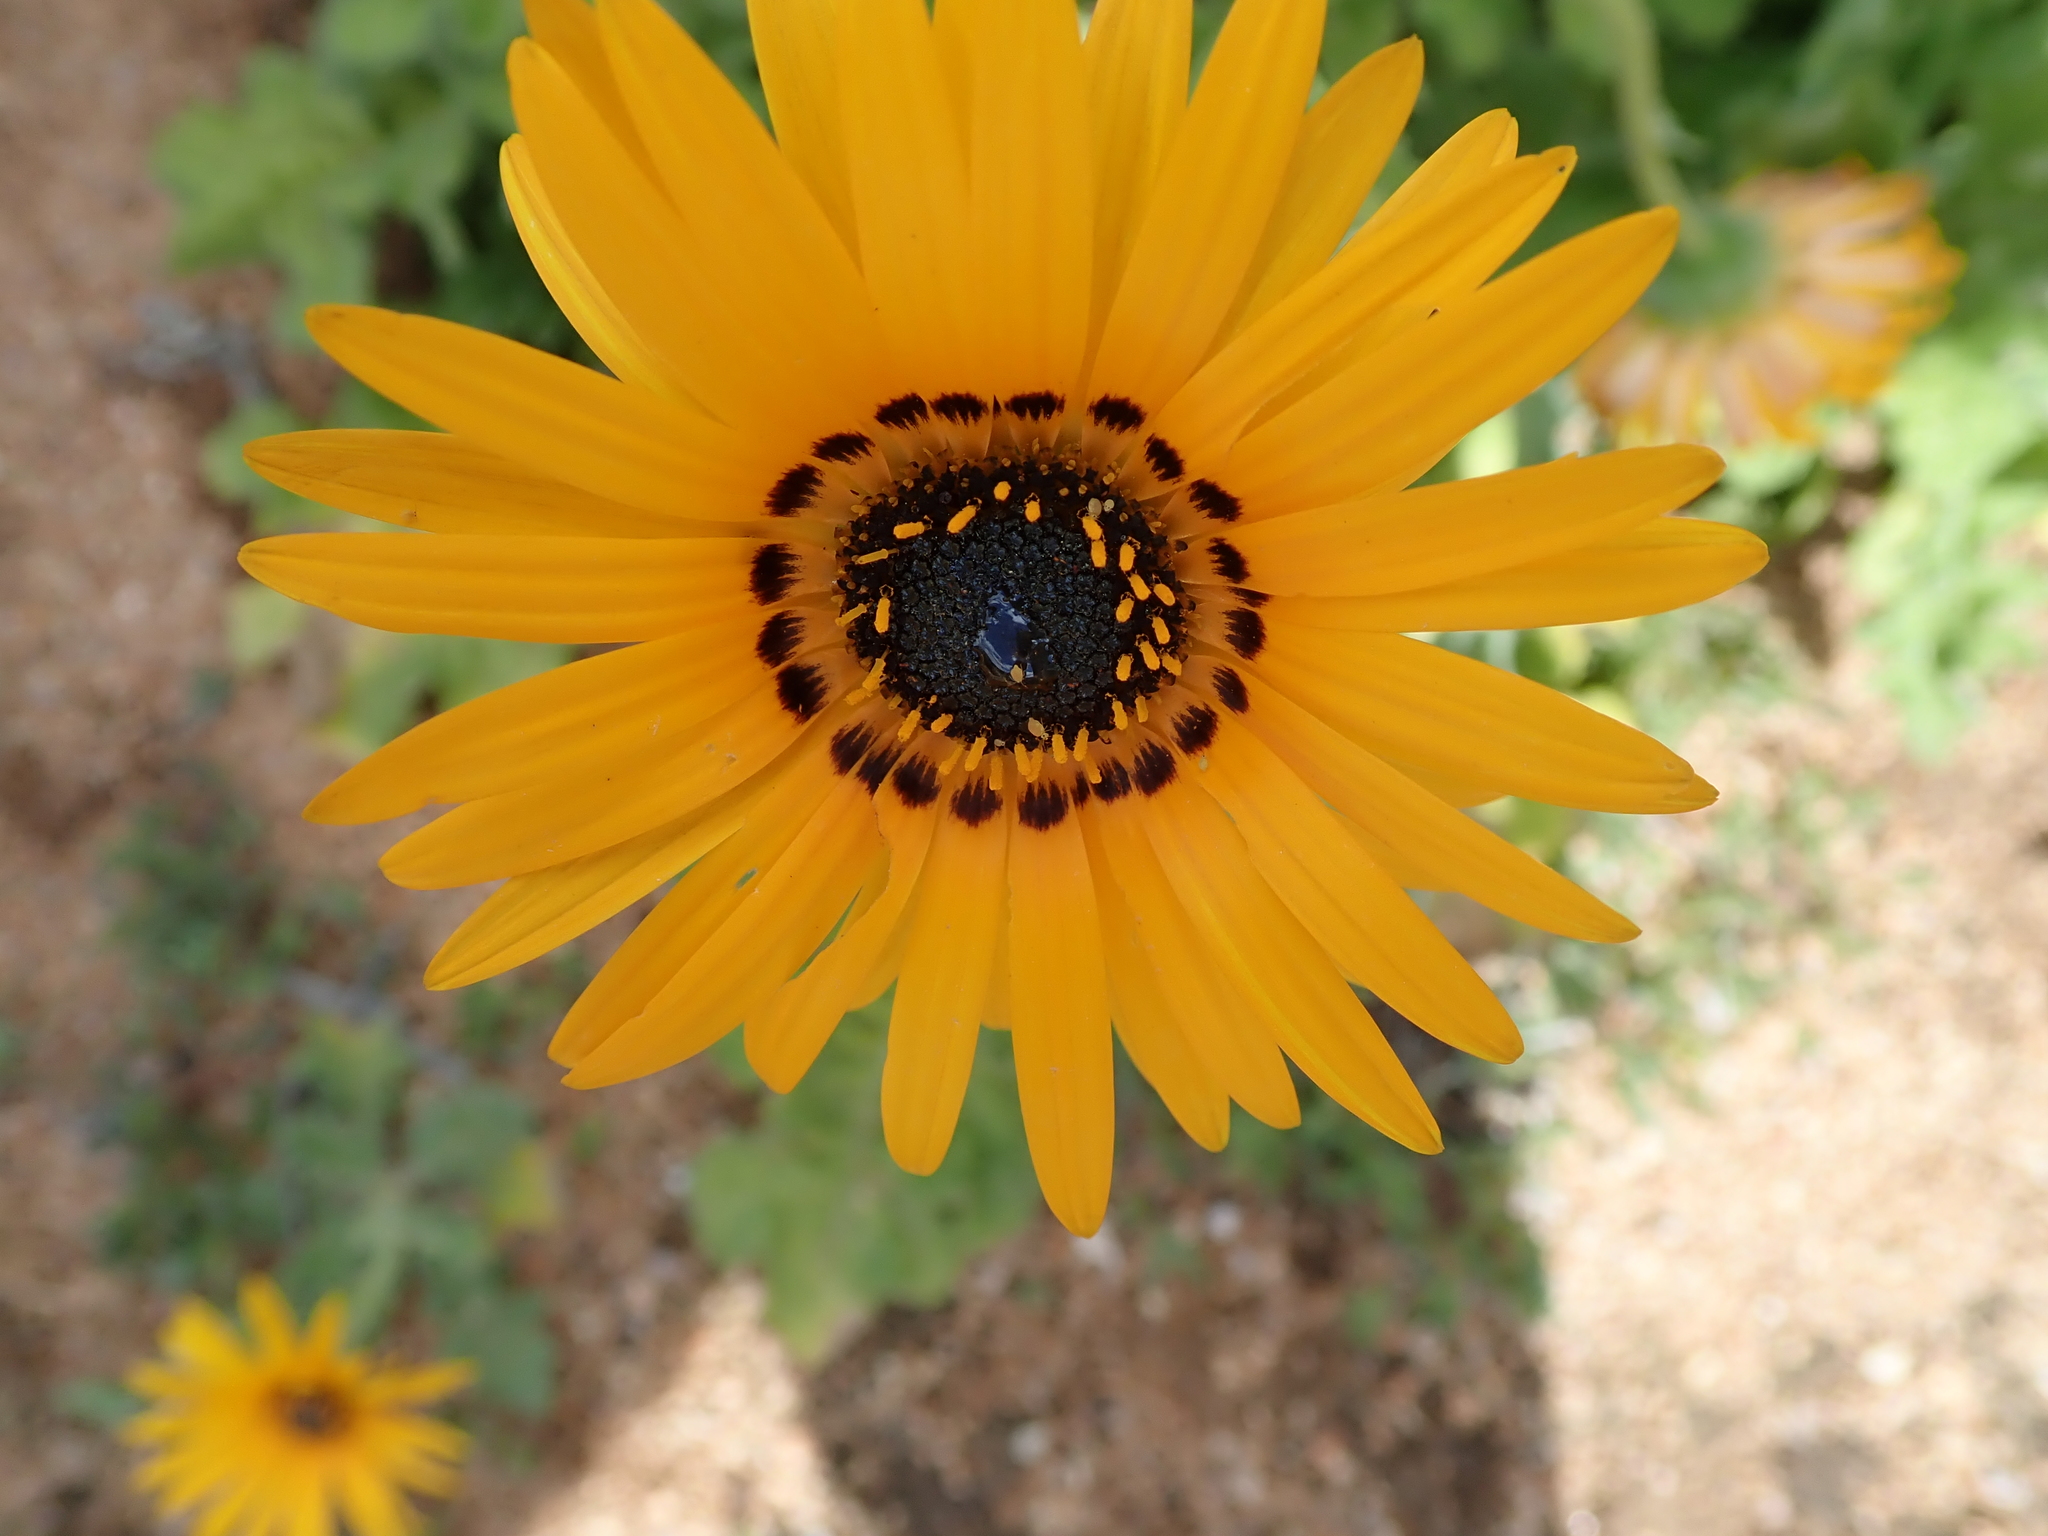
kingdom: Plantae
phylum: Tracheophyta
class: Magnoliopsida
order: Asterales
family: Asteraceae
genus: Arctotis
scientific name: Arctotis fastuosa
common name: Monarch of the veld
